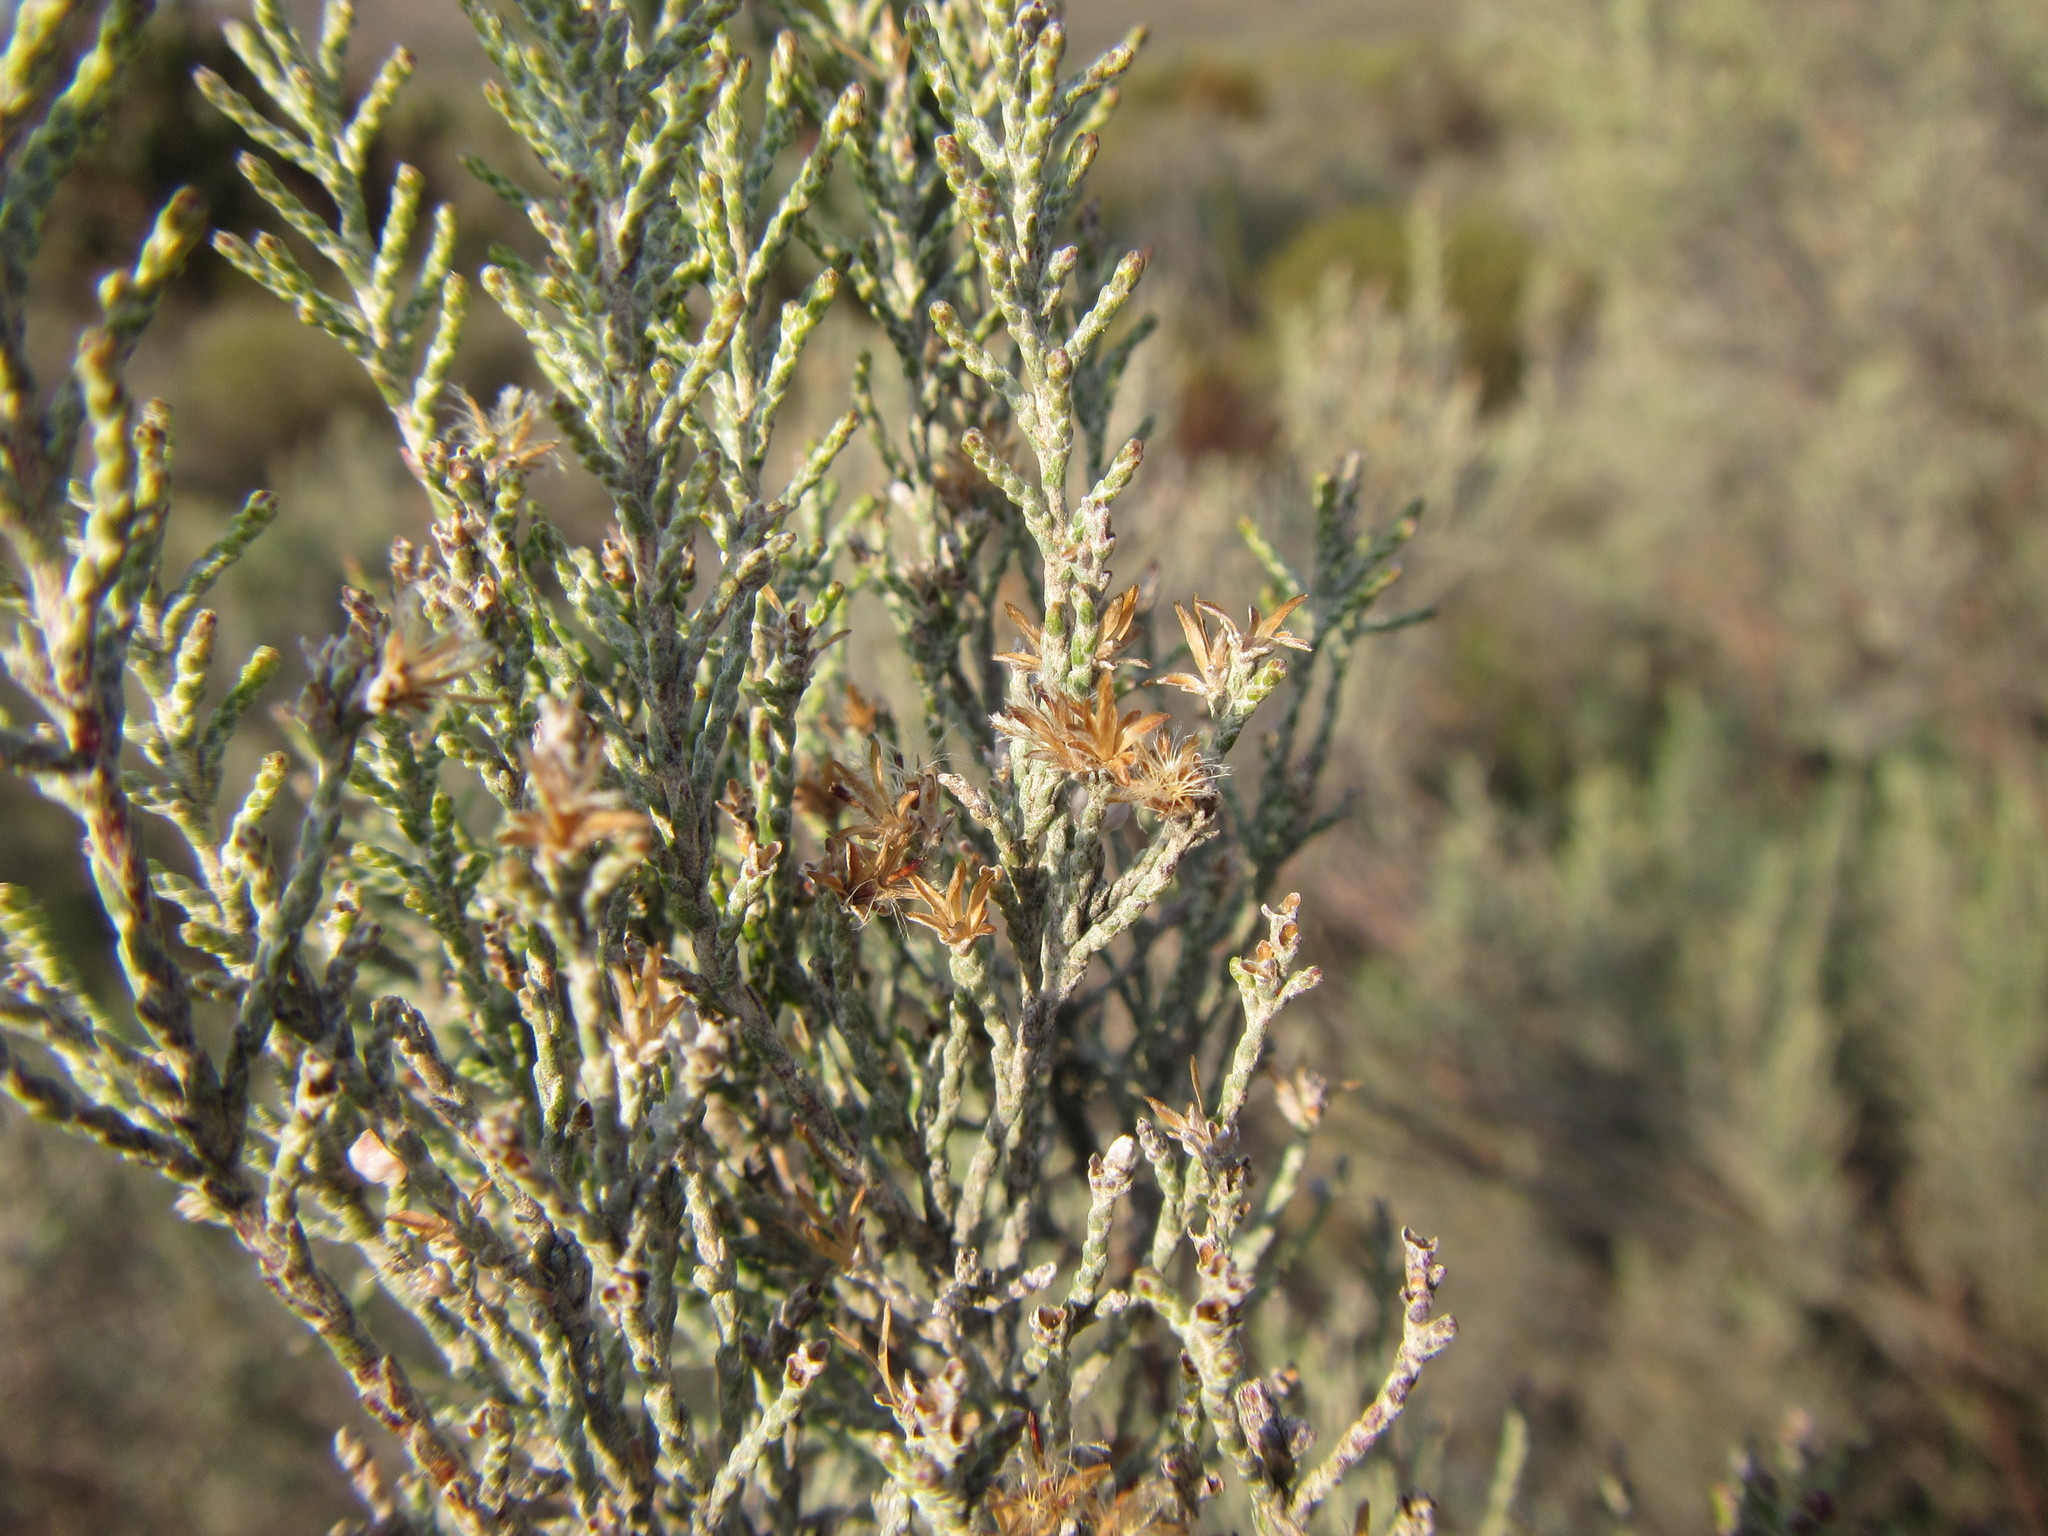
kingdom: Plantae
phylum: Tracheophyta
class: Magnoliopsida
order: Asterales
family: Asteraceae
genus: Dicerothamnus
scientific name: Dicerothamnus rhinocerotis
